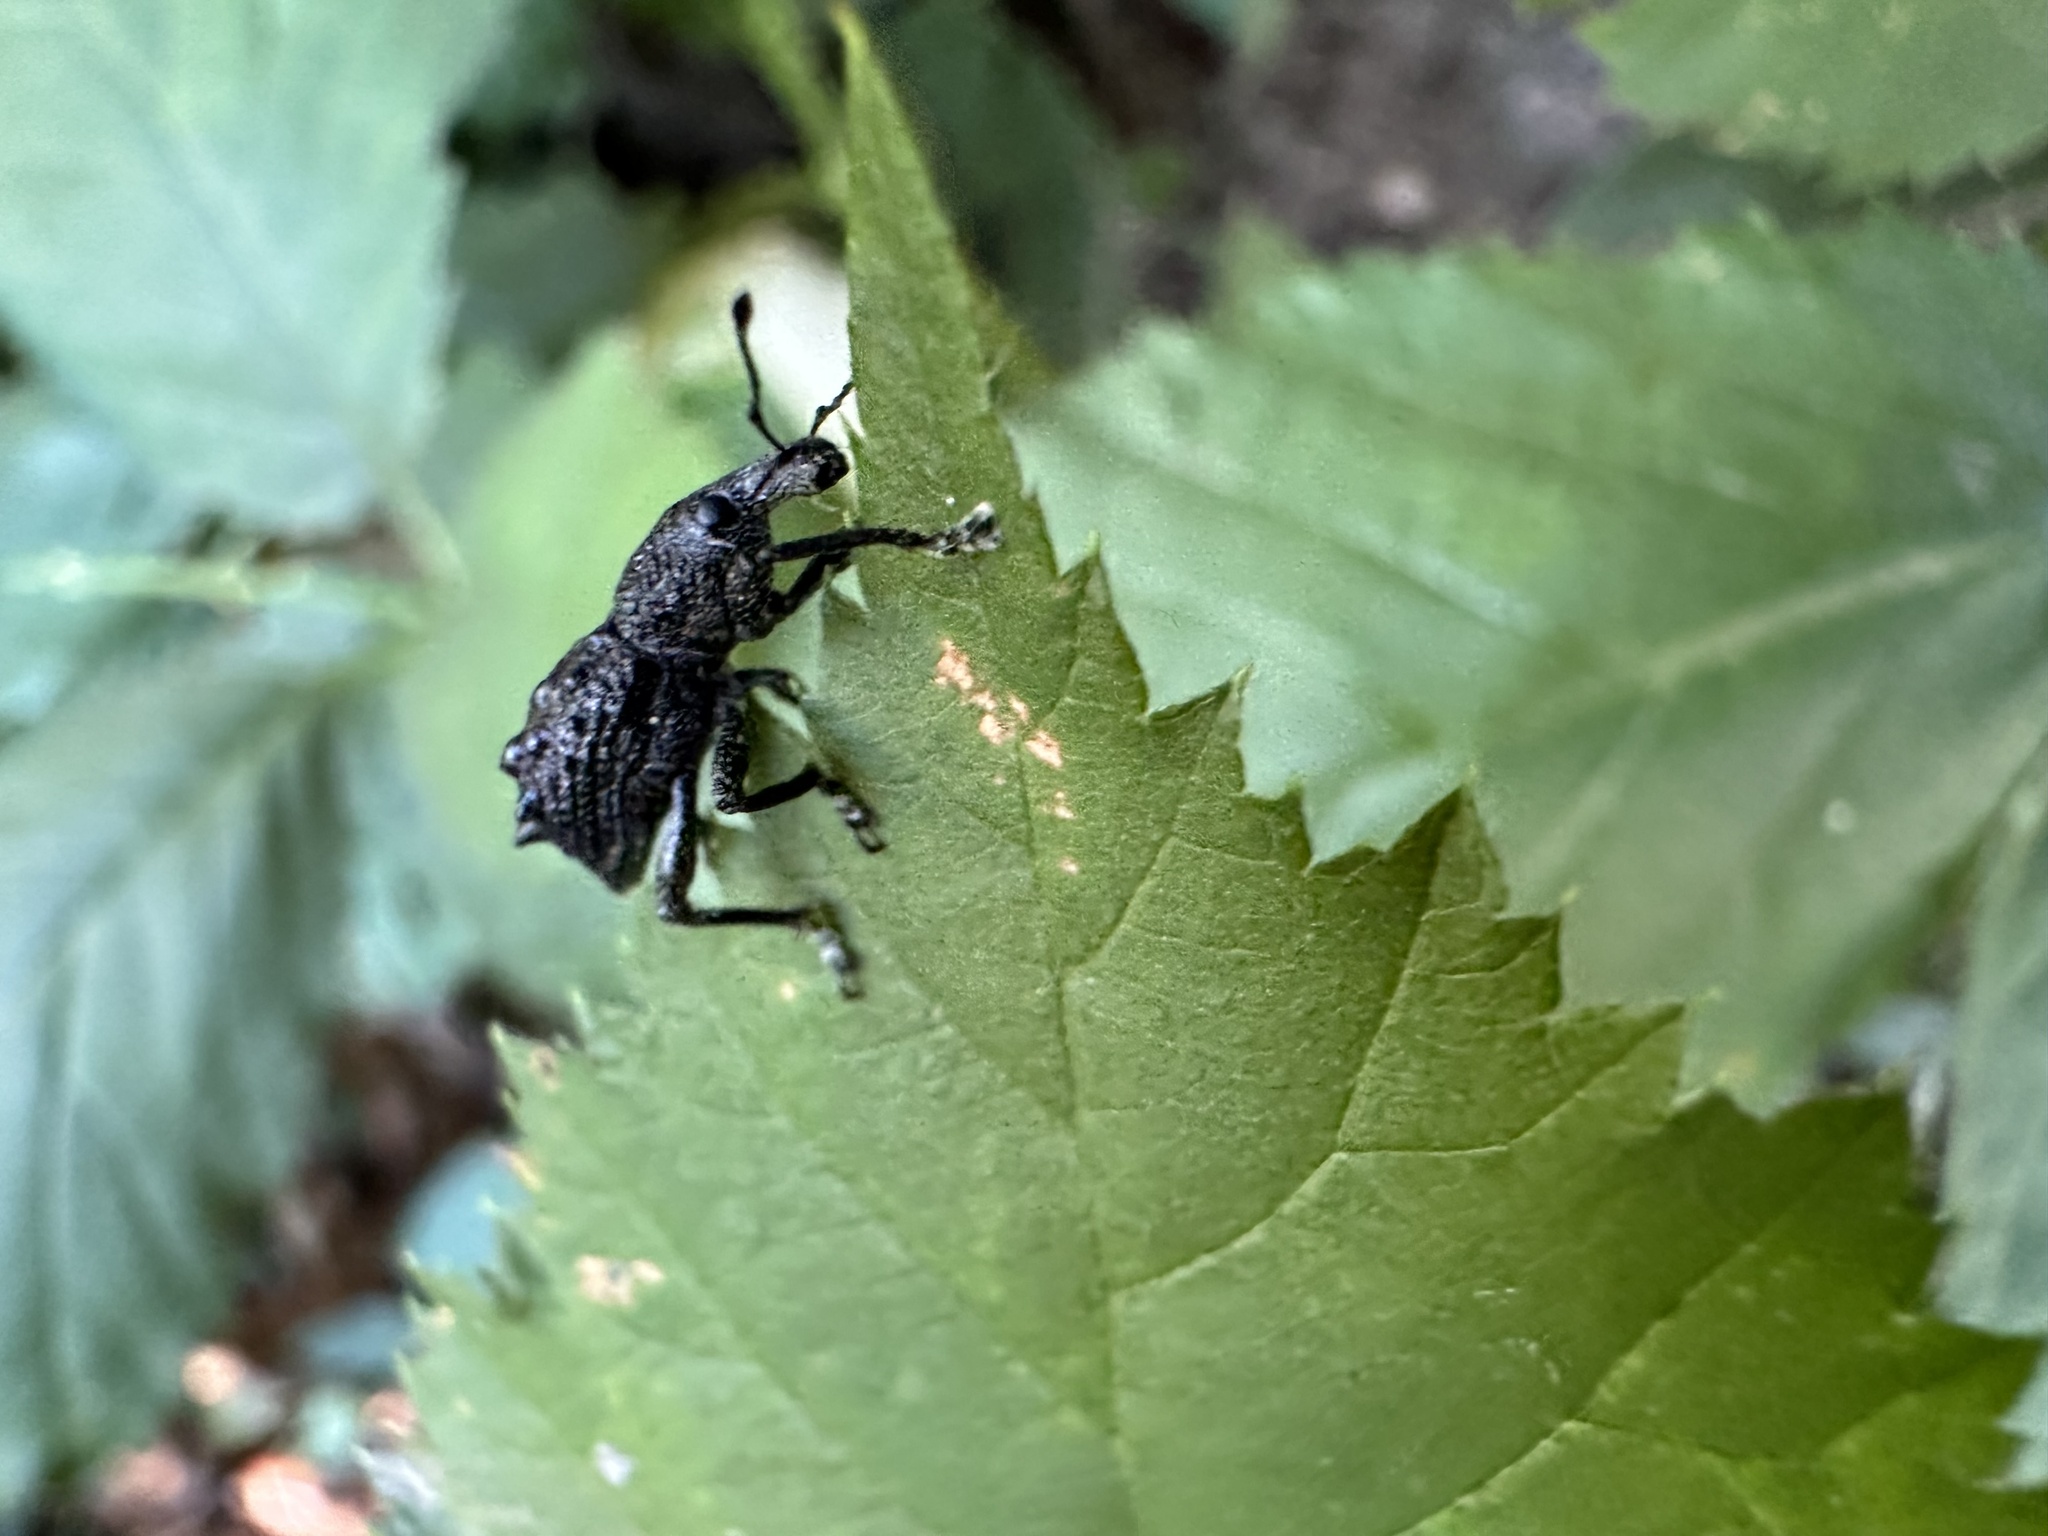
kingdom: Animalia
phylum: Arthropoda
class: Insecta
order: Coleoptera
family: Curculionidae
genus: Megalometis
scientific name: Megalometis spiniferus
